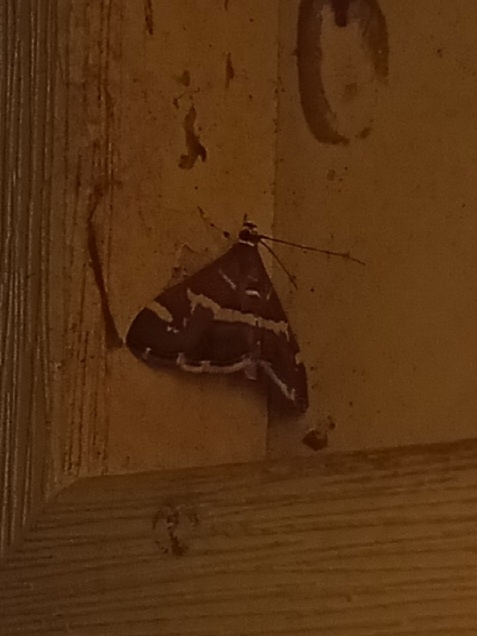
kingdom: Animalia
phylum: Arthropoda
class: Insecta
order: Lepidoptera
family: Crambidae
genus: Spoladea
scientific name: Spoladea recurvalis
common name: Beet webworm moth
